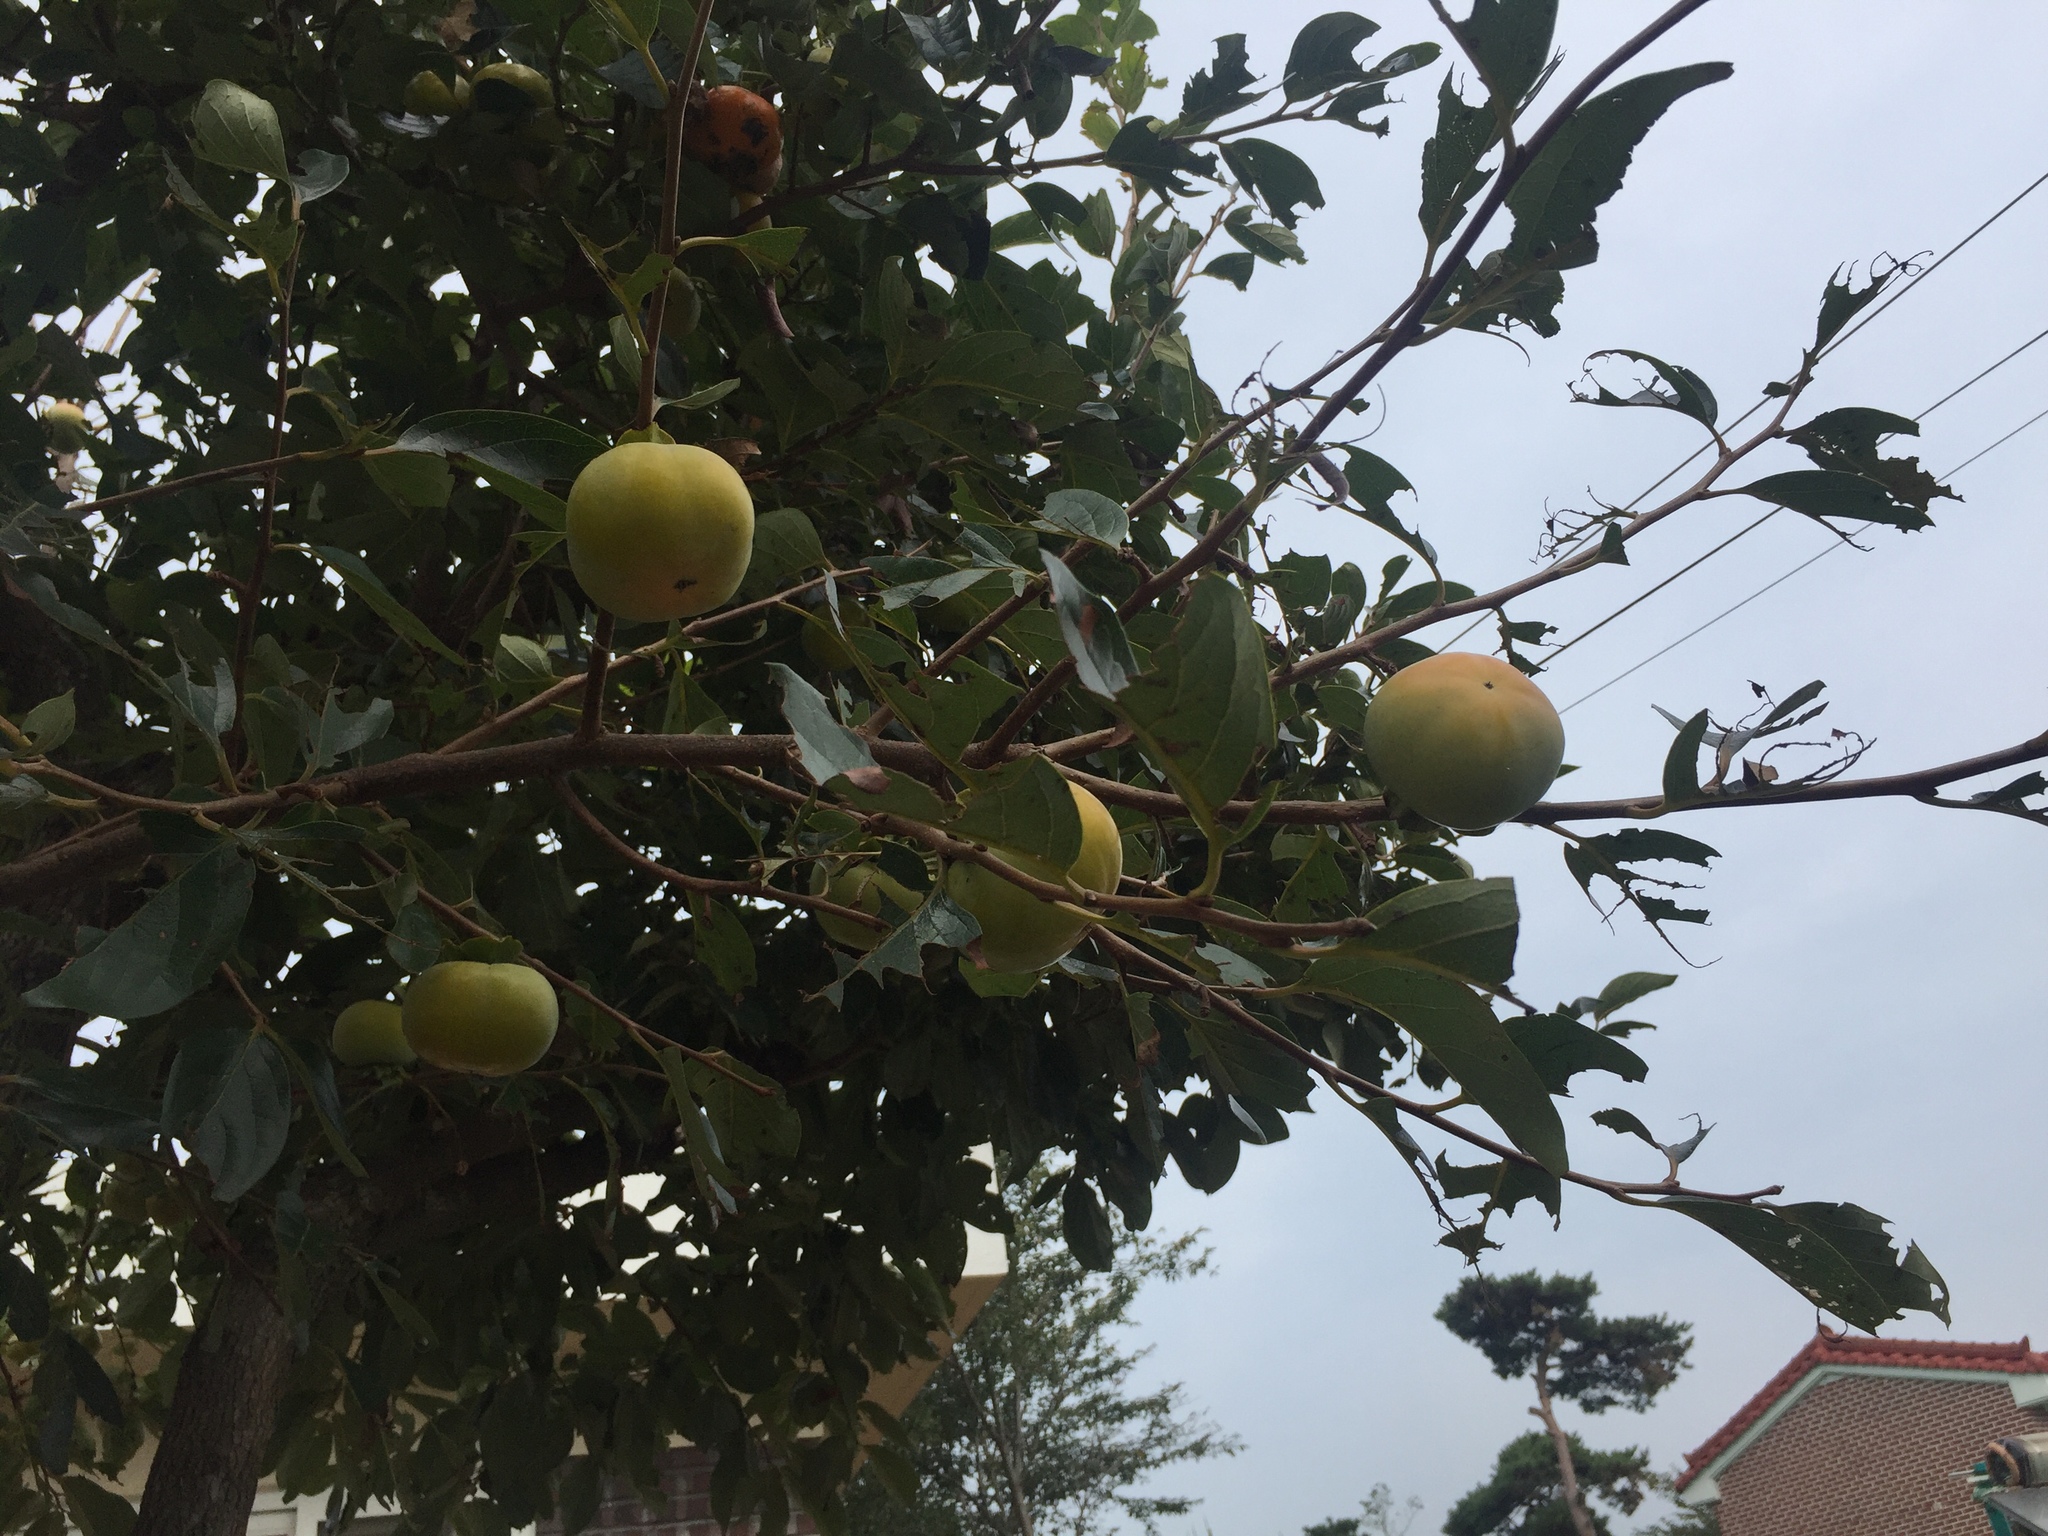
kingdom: Plantae
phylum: Tracheophyta
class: Magnoliopsida
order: Ericales
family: Ebenaceae
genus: Diospyros
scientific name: Diospyros kaki
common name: Persimmon
